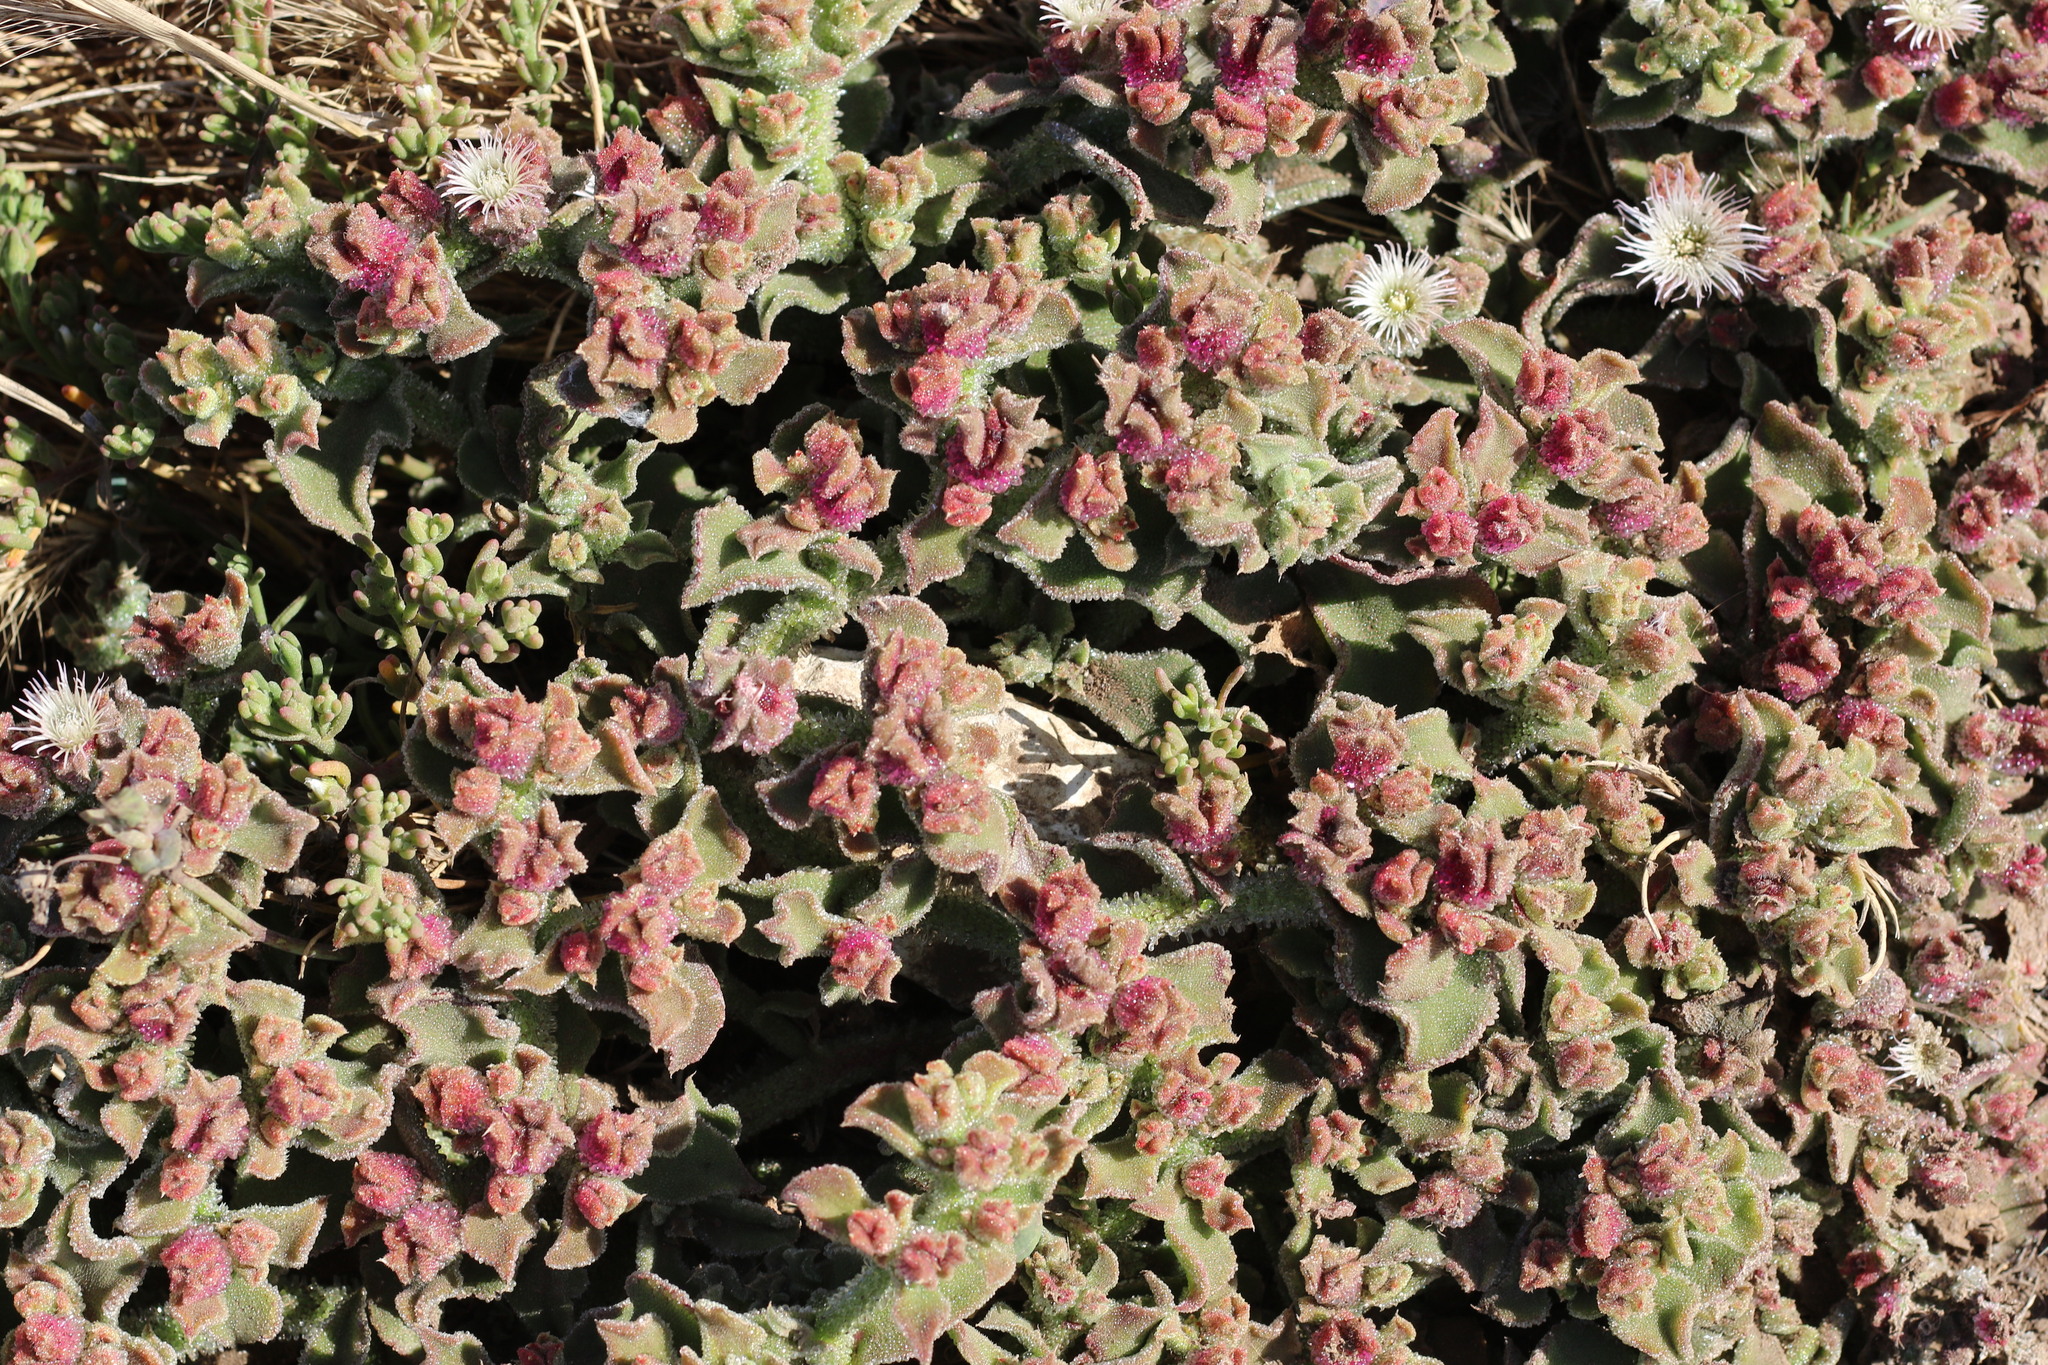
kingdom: Plantae
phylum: Tracheophyta
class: Magnoliopsida
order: Caryophyllales
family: Aizoaceae
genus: Mesembryanthemum
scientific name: Mesembryanthemum crystallinum
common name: Common iceplant
